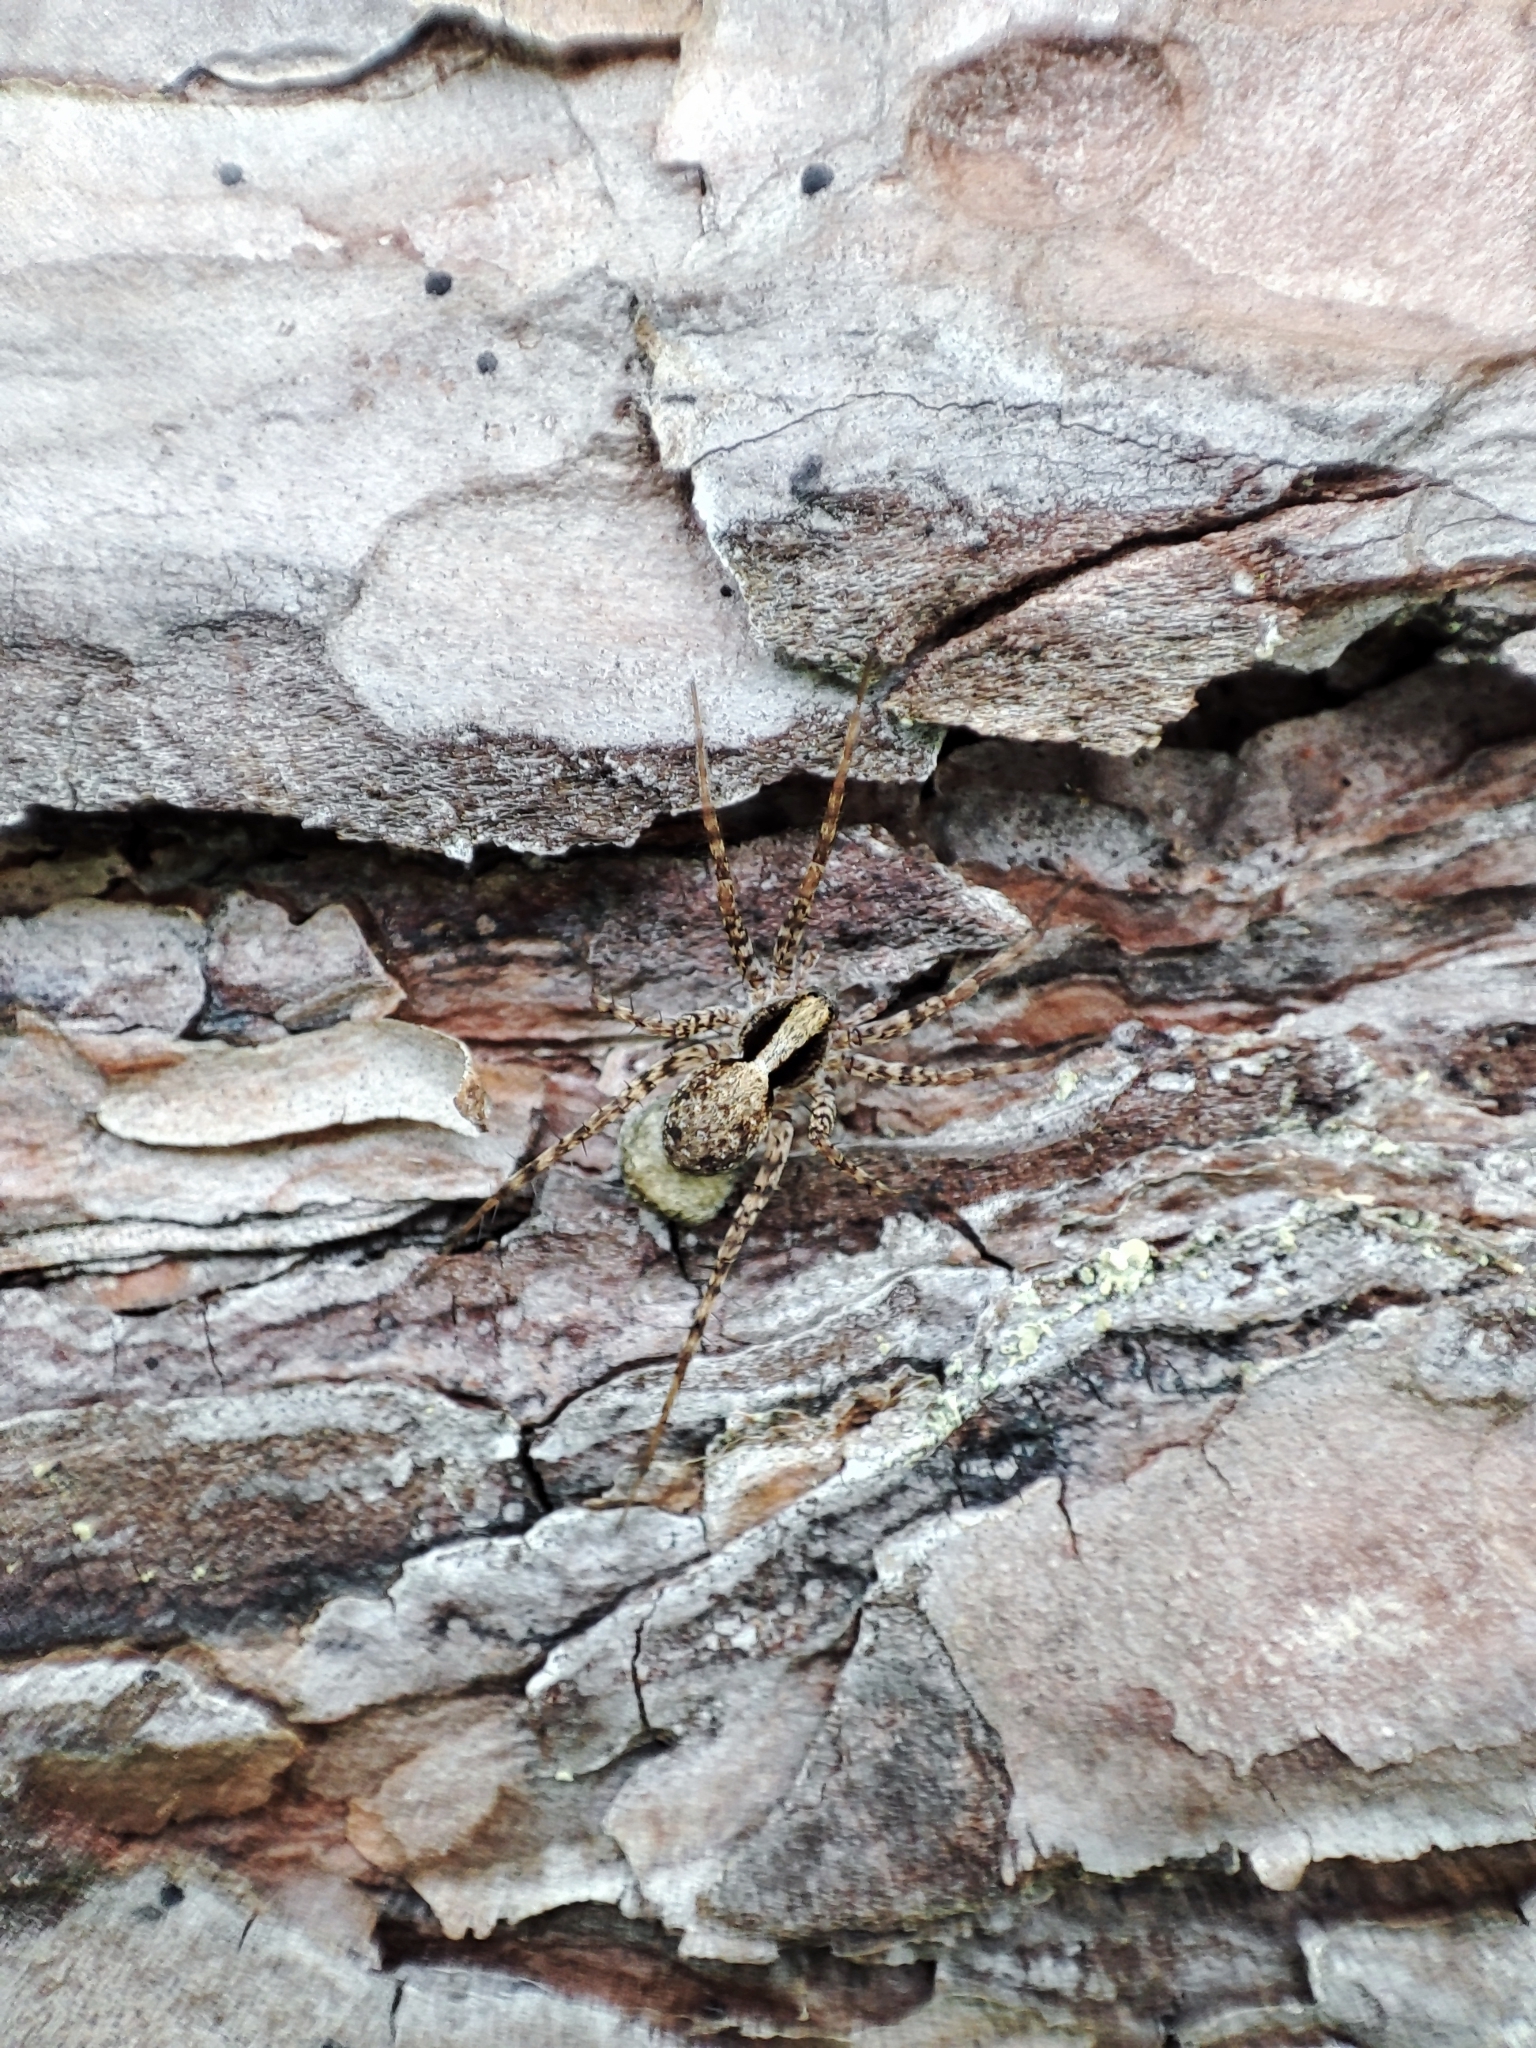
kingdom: Animalia
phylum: Arthropoda
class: Arachnida
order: Araneae
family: Lycosidae
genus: Pardosa
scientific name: Pardosa
